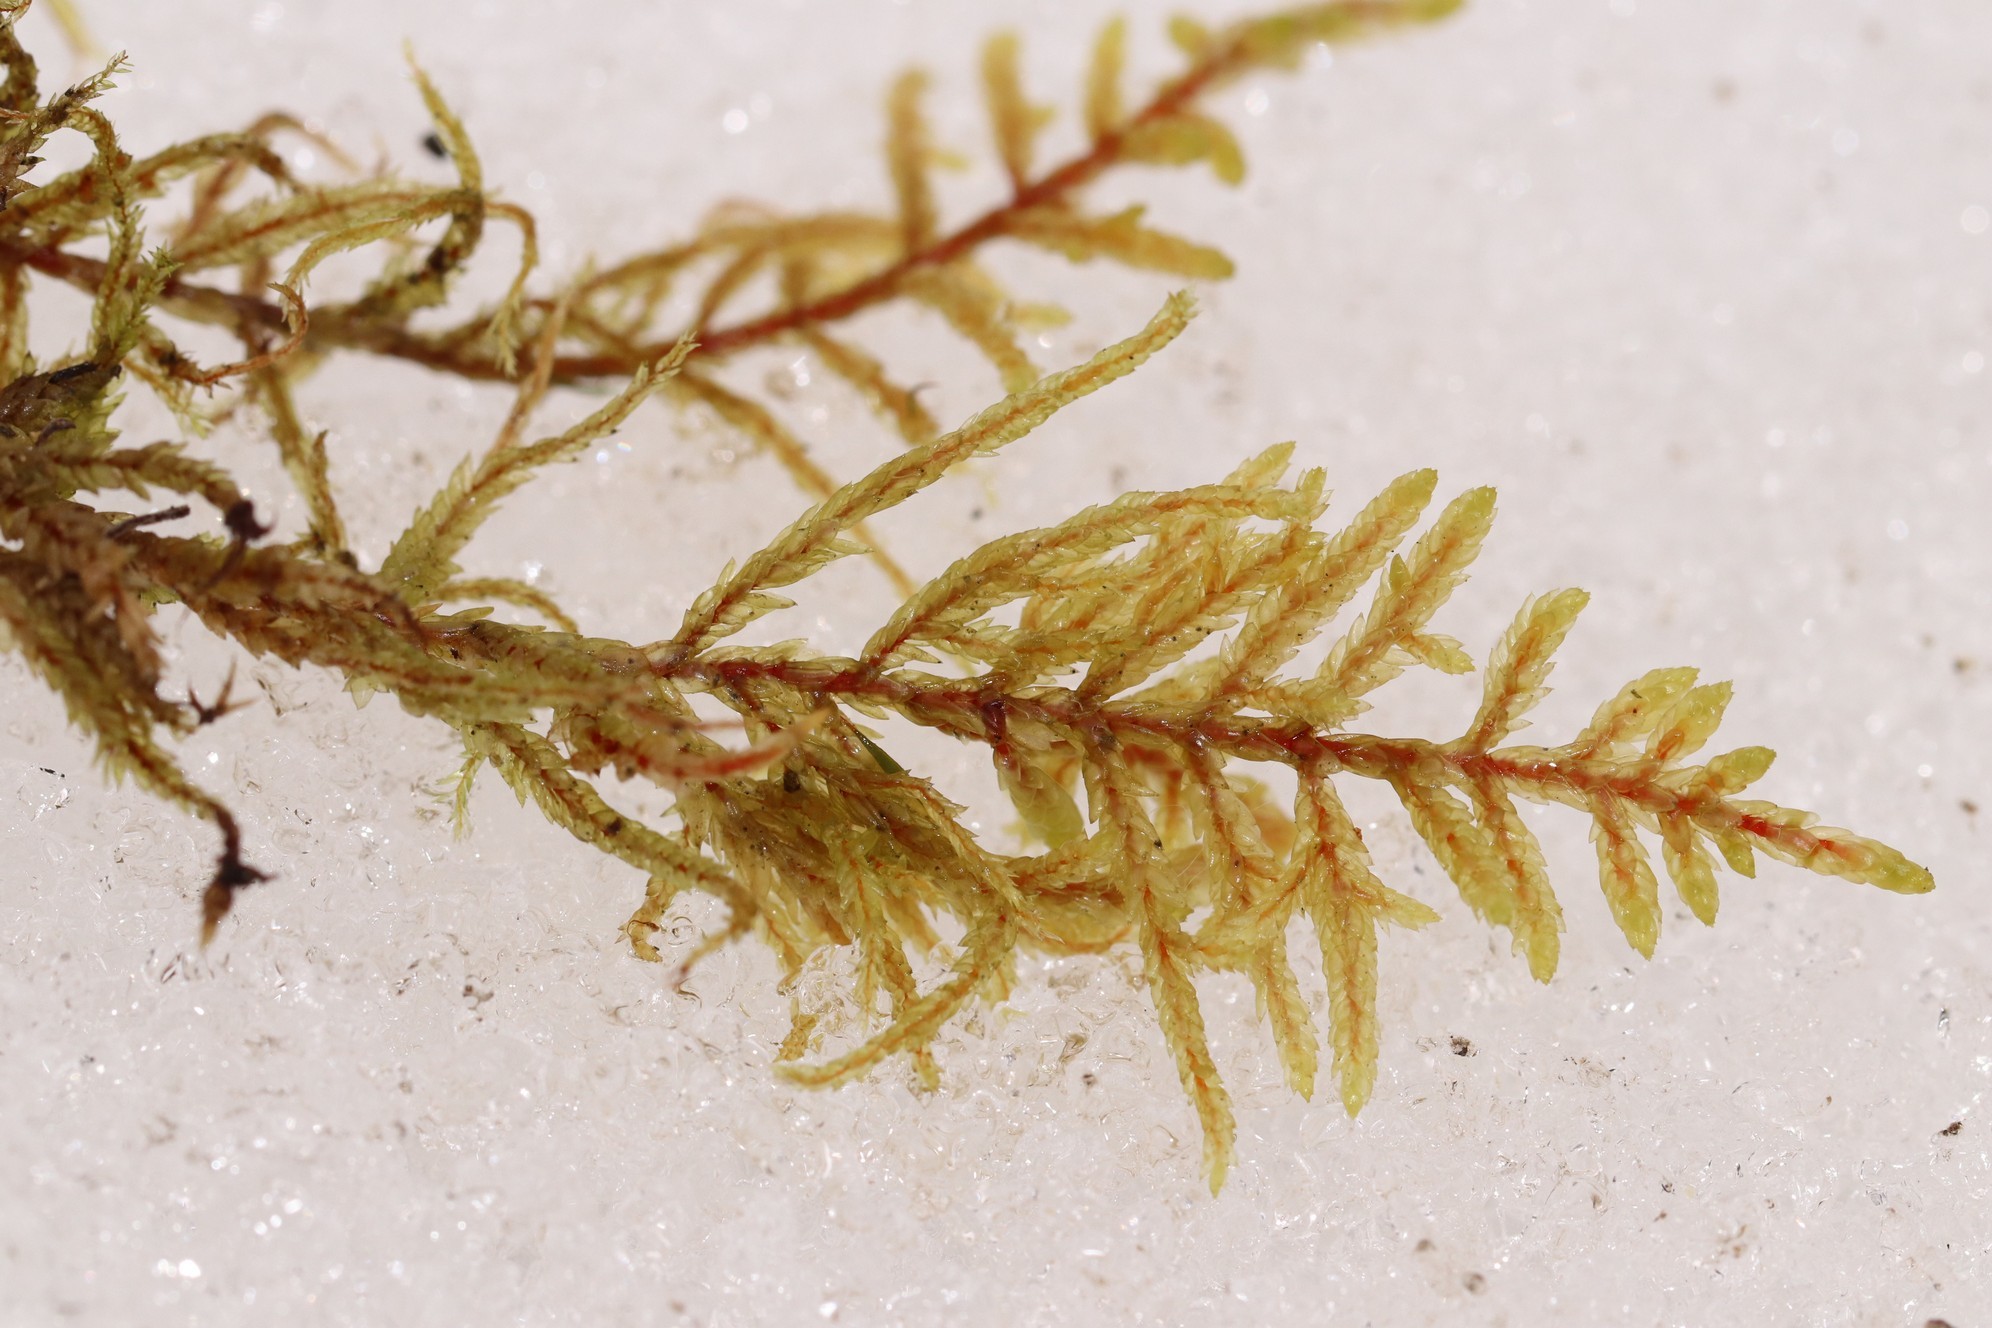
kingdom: Plantae
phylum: Bryophyta
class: Bryopsida
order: Hypnales
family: Hylocomiaceae
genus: Pleurozium
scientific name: Pleurozium schreberi
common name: Red-stemmed feather moss
